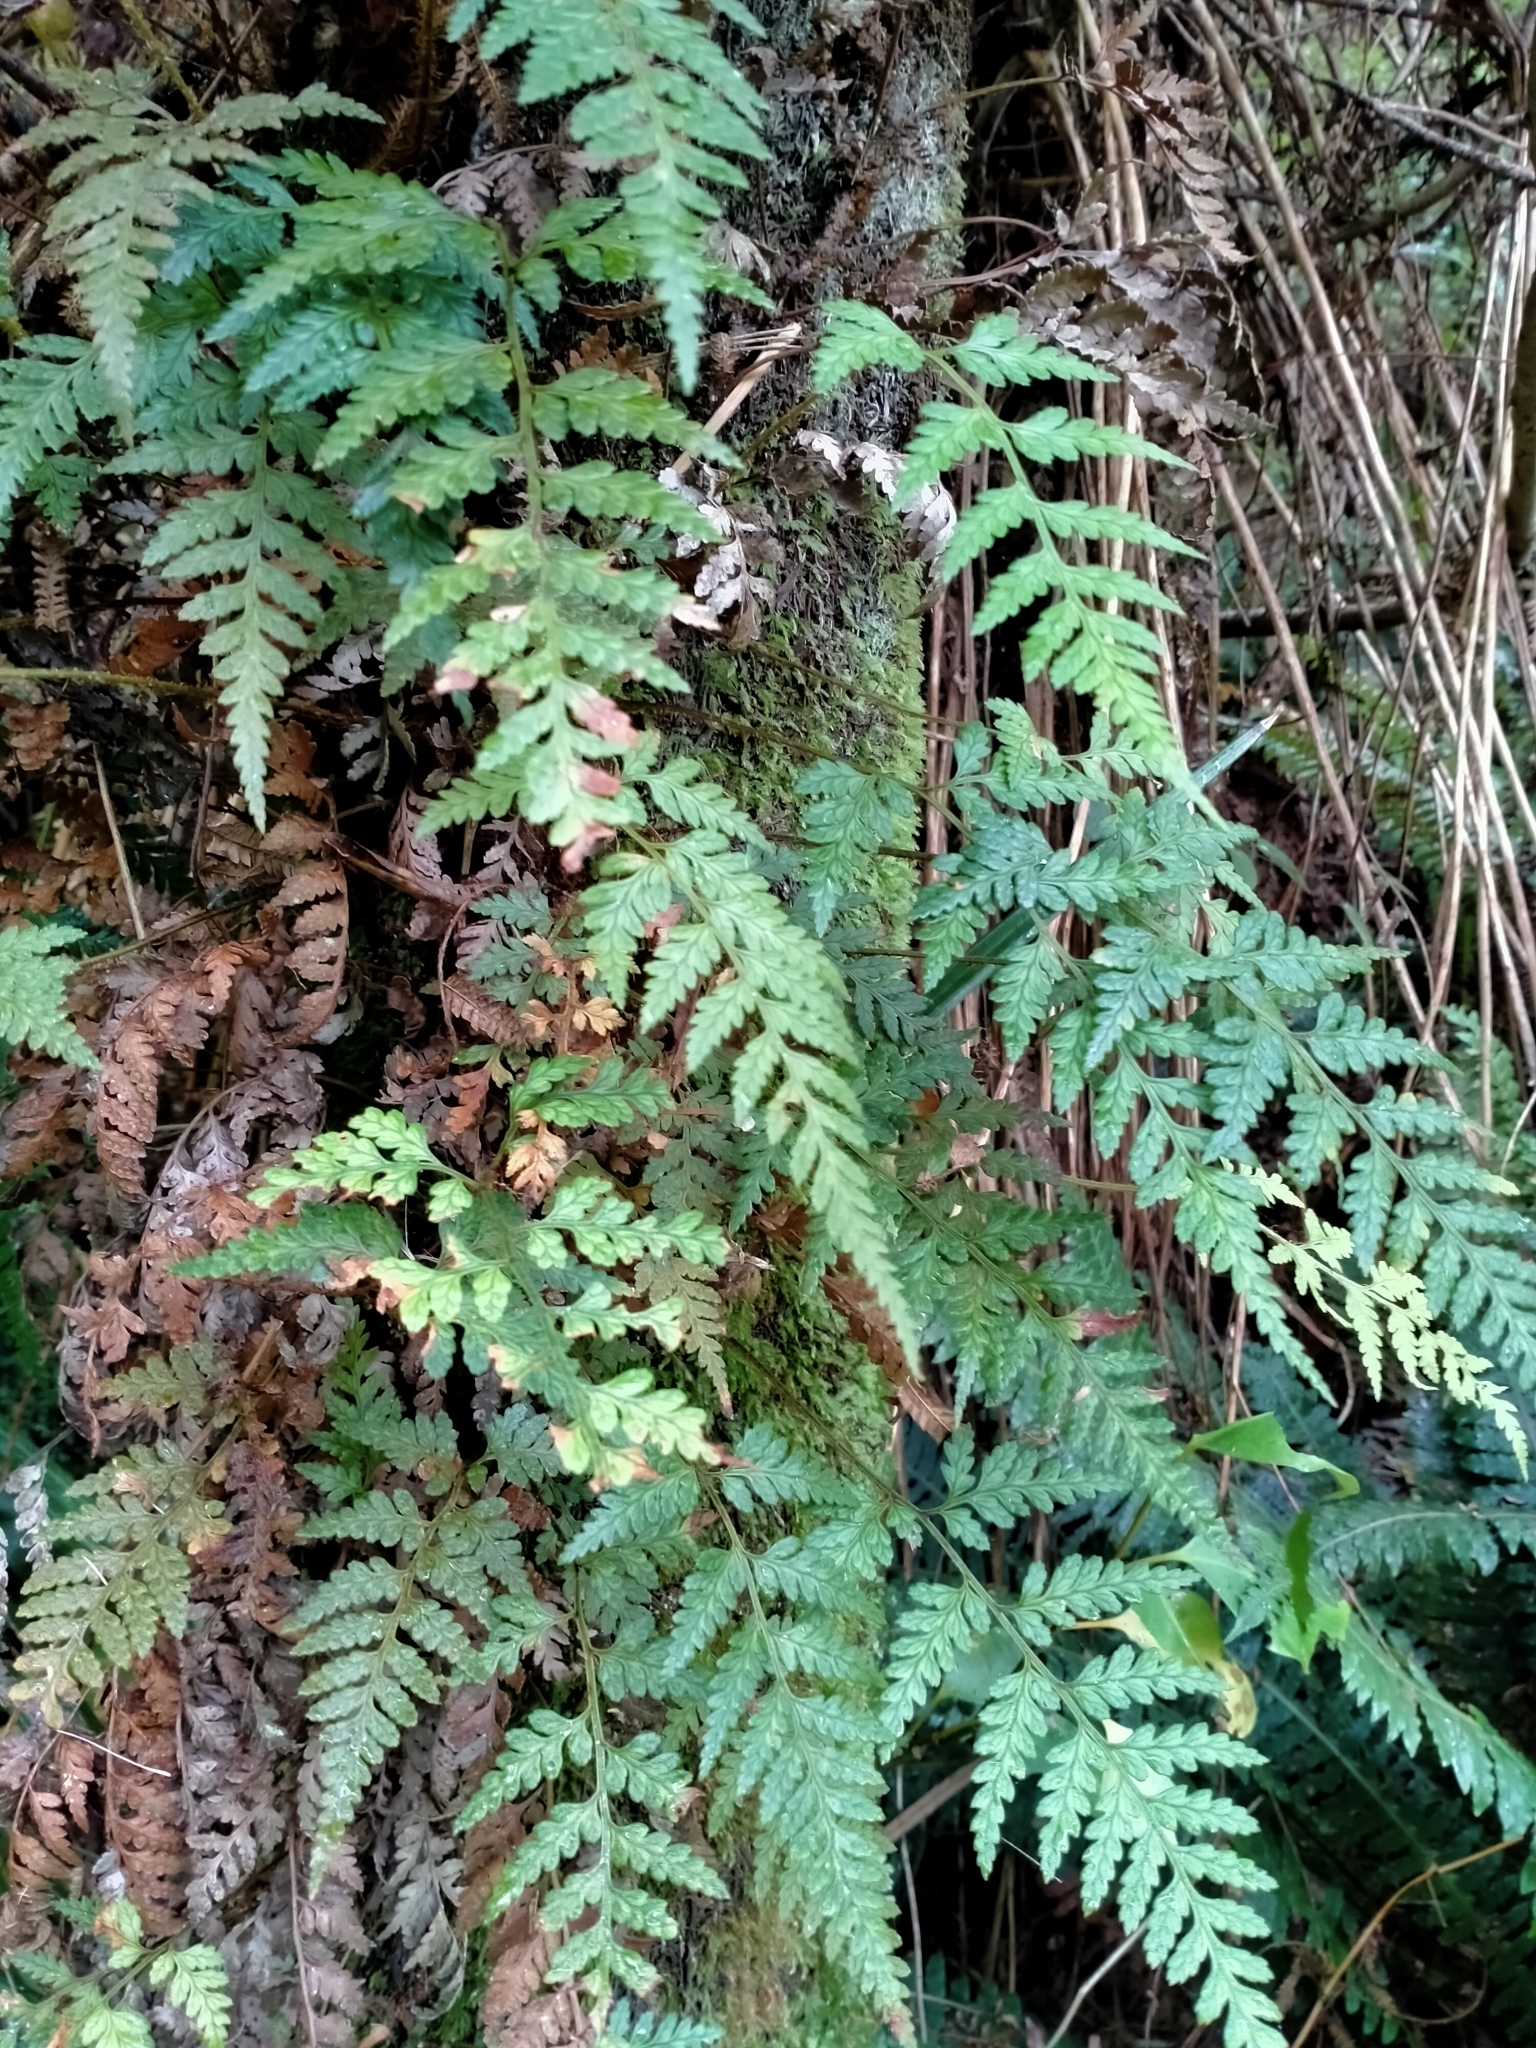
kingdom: Plantae
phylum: Tracheophyta
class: Polypodiopsida
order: Polypodiales
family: Dryopteridaceae
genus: Rumohra
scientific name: Rumohra adiantiformis
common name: Leather fern
